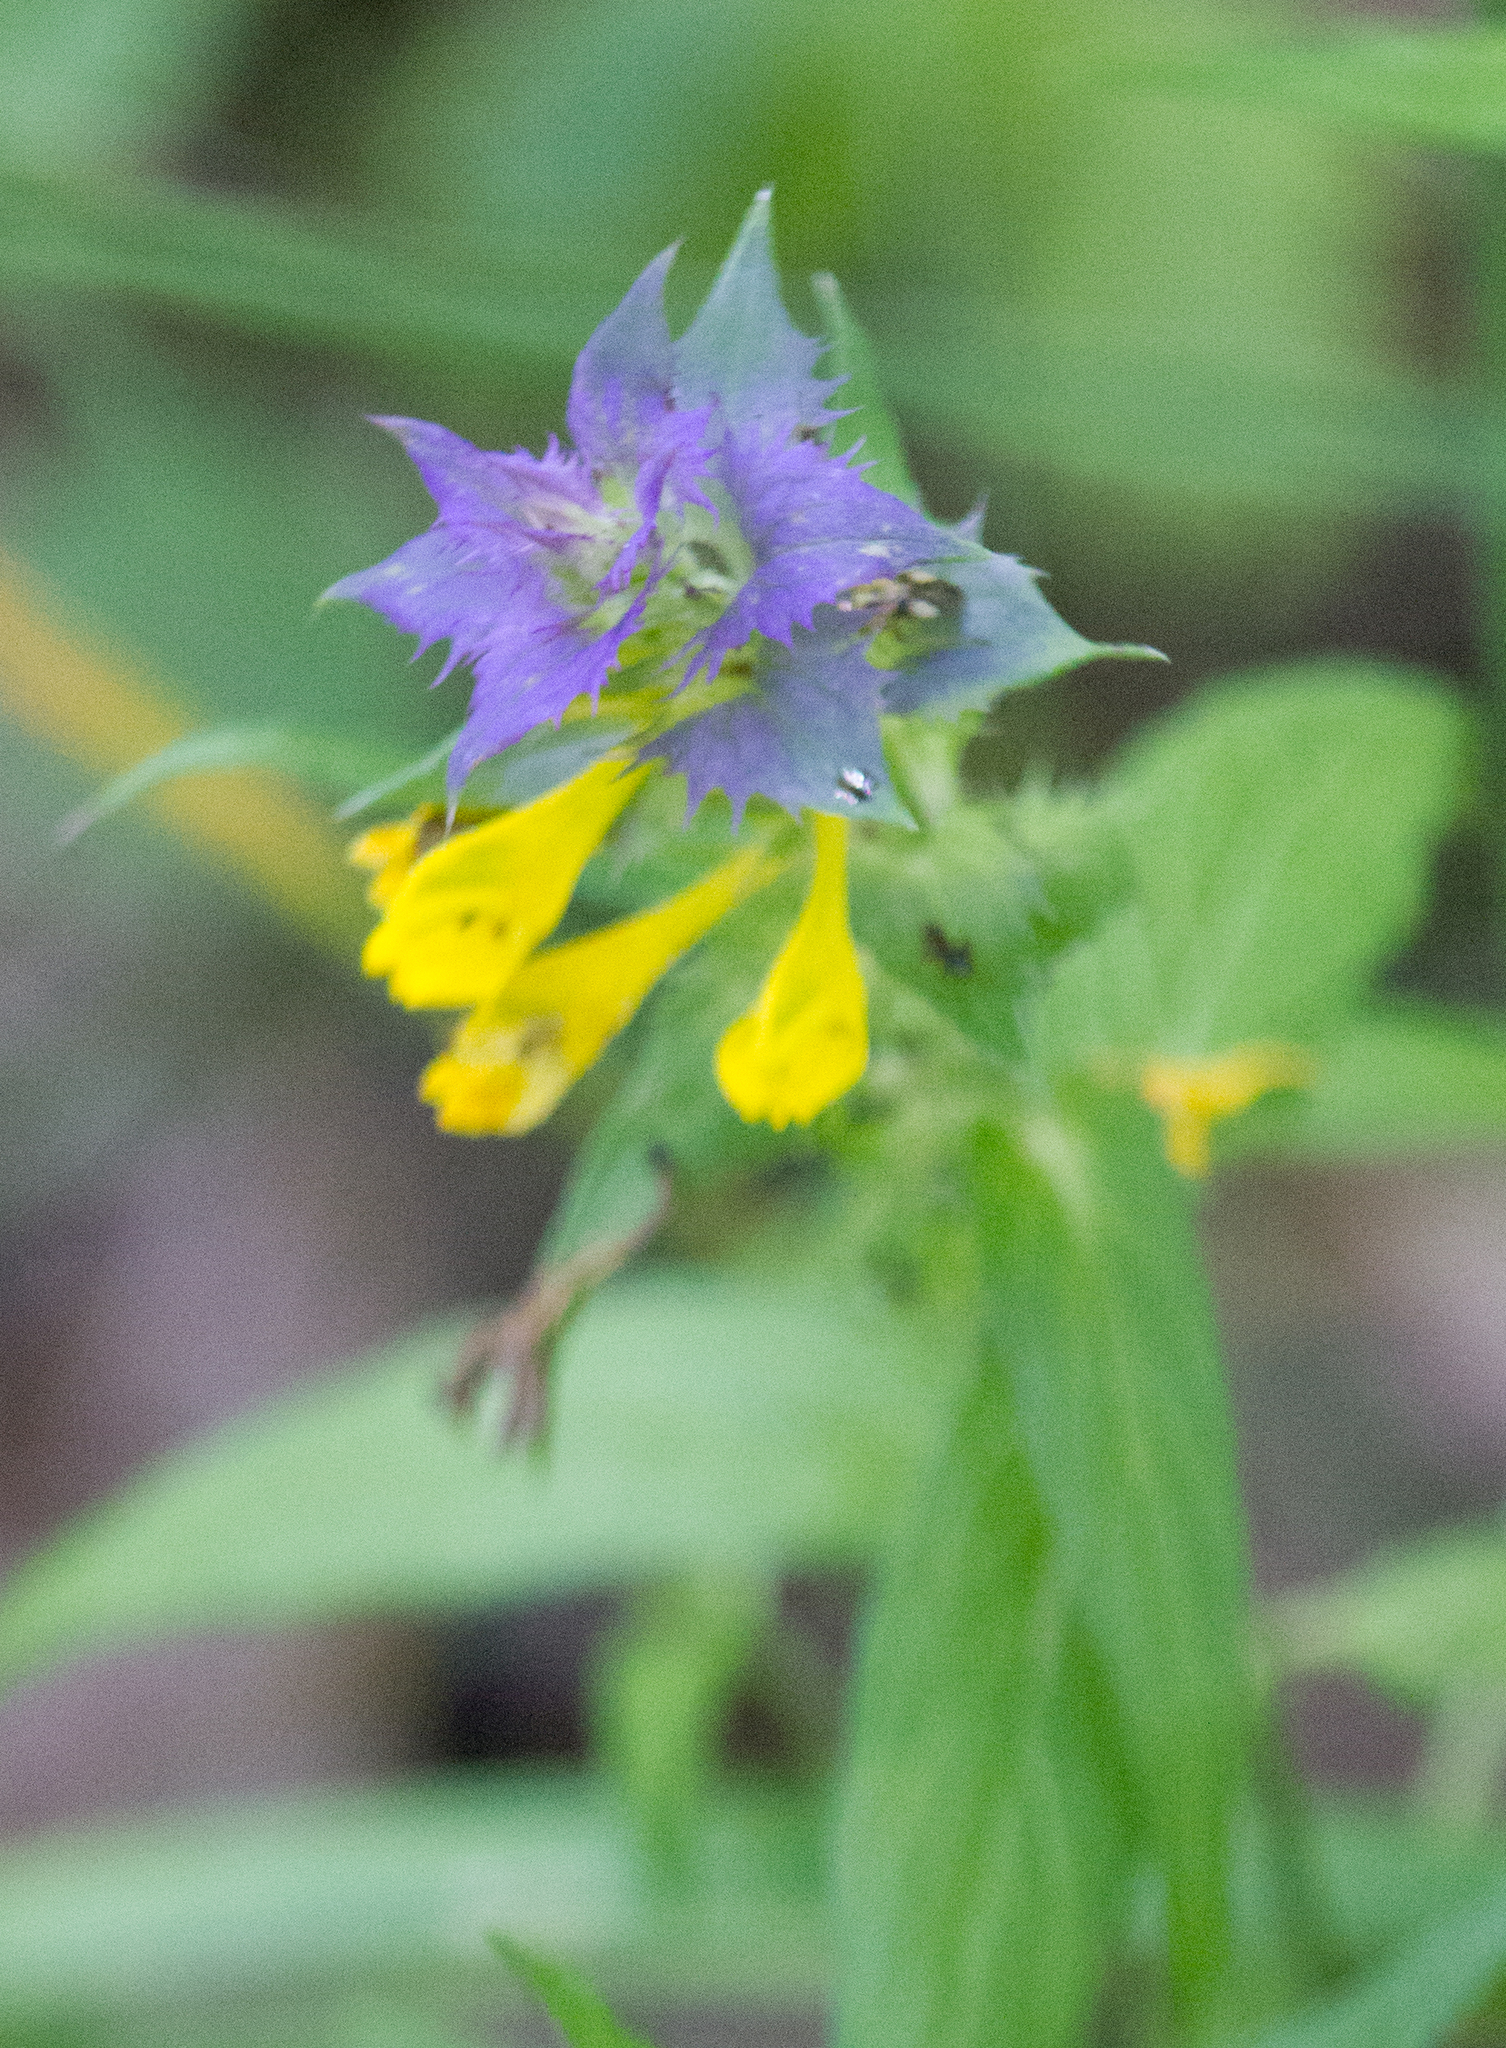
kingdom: Plantae
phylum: Tracheophyta
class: Magnoliopsida
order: Lamiales
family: Orobanchaceae
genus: Melampyrum
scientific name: Melampyrum nemorosum
